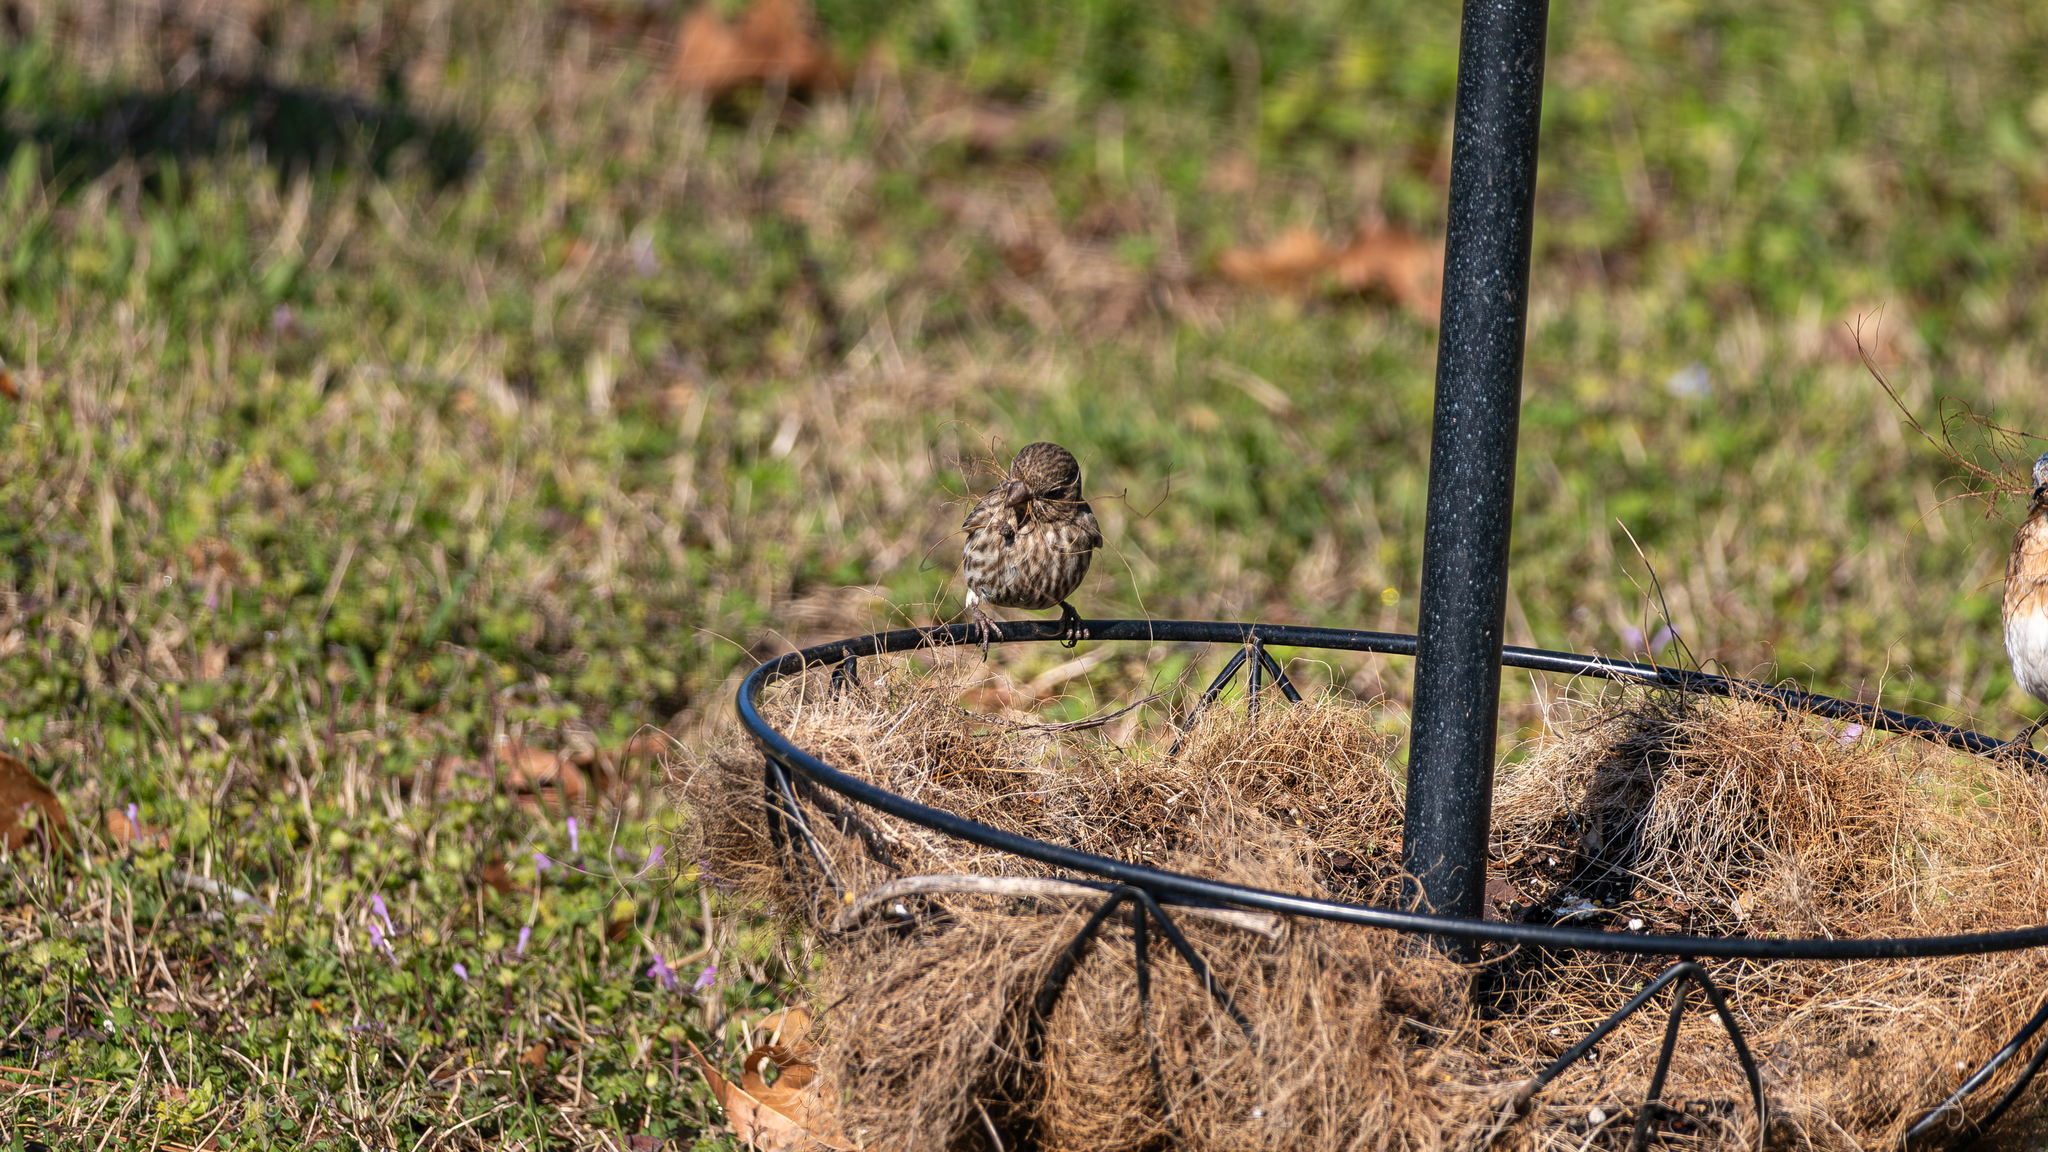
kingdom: Animalia
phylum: Chordata
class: Aves
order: Passeriformes
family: Fringillidae
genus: Haemorhous
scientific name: Haemorhous mexicanus
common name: House finch
